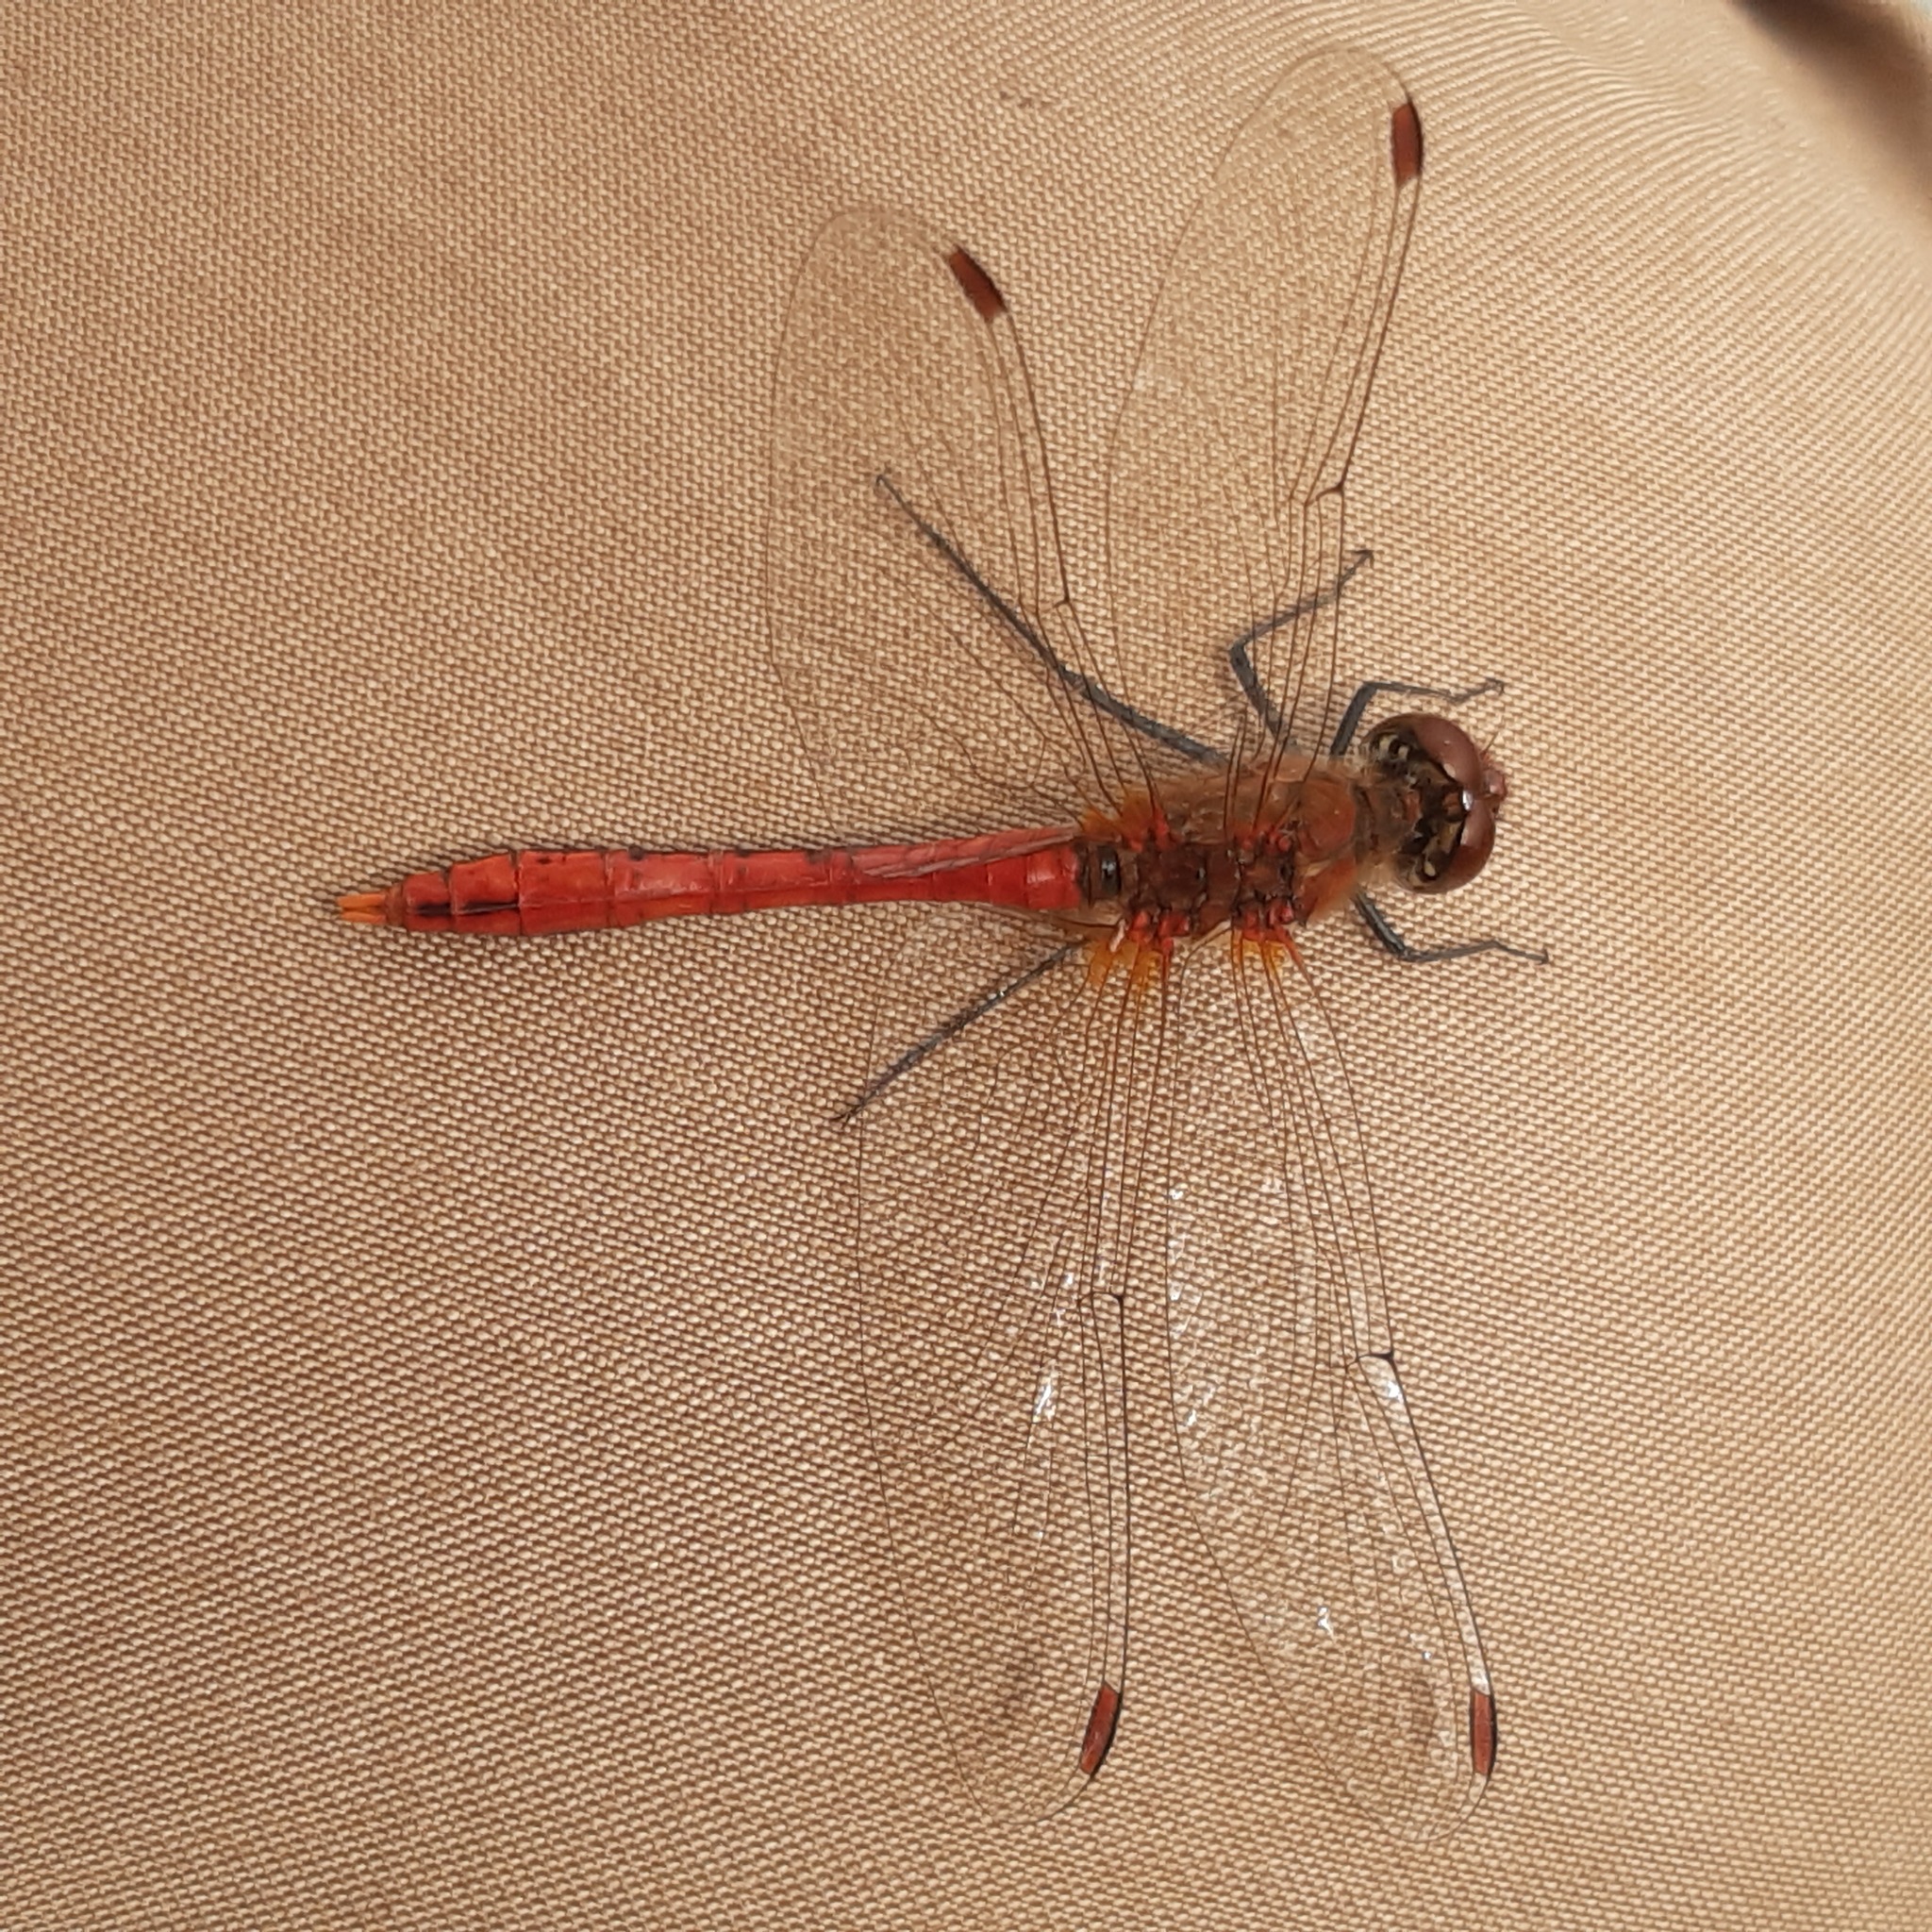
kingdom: Animalia
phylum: Arthropoda
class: Insecta
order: Odonata
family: Libellulidae
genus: Sympetrum
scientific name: Sympetrum sanguineum
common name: Ruddy darter
